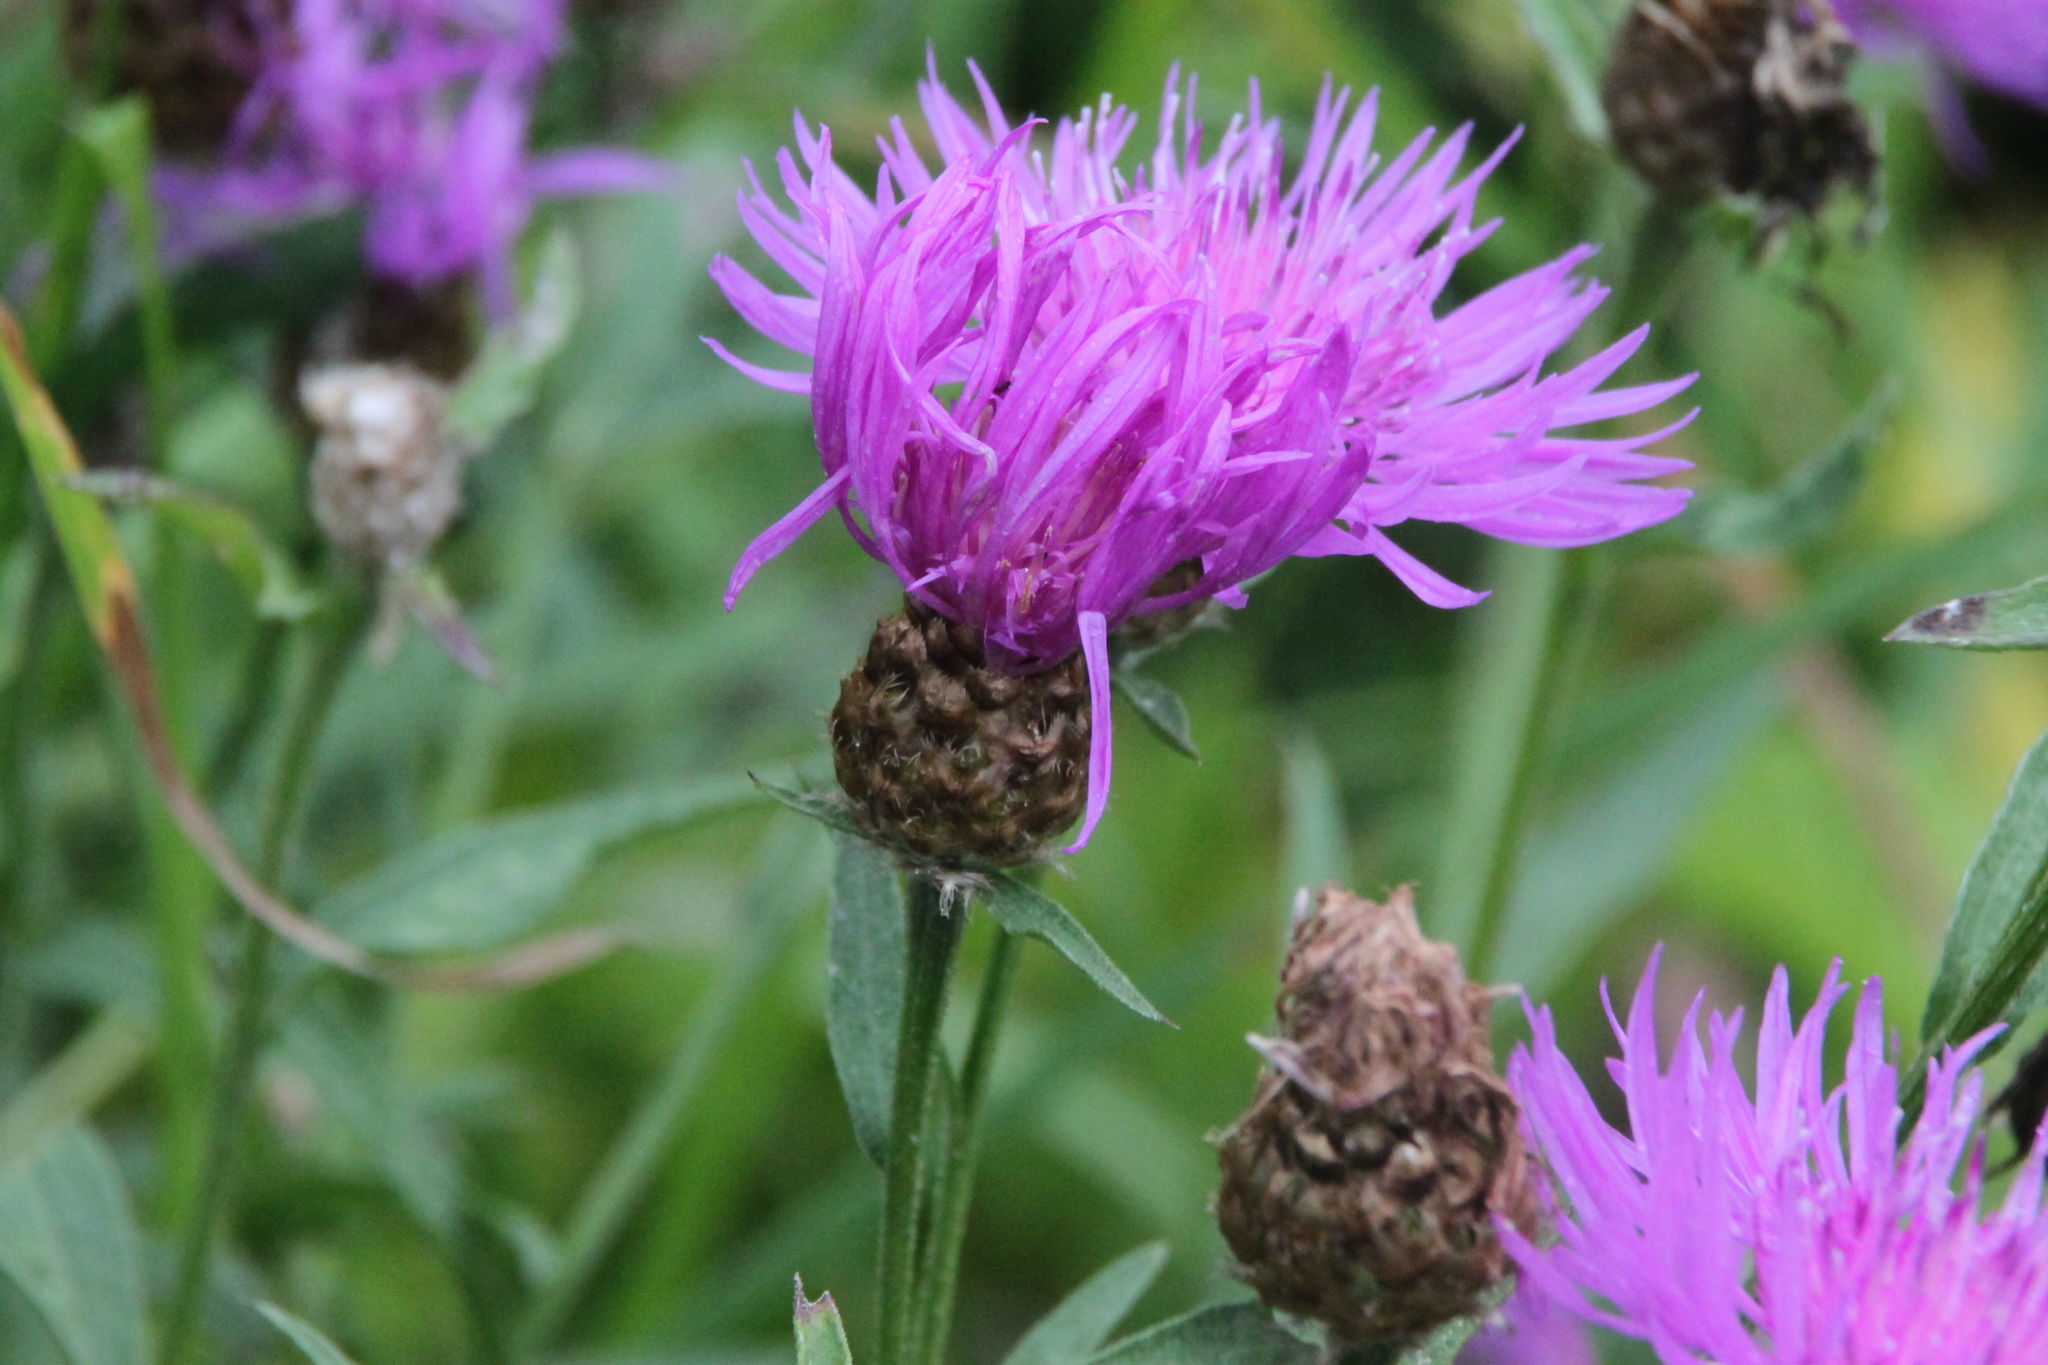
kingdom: Plantae
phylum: Tracheophyta
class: Magnoliopsida
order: Asterales
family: Asteraceae
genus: Centaurea
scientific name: Centaurea jacea
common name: Brown knapweed
